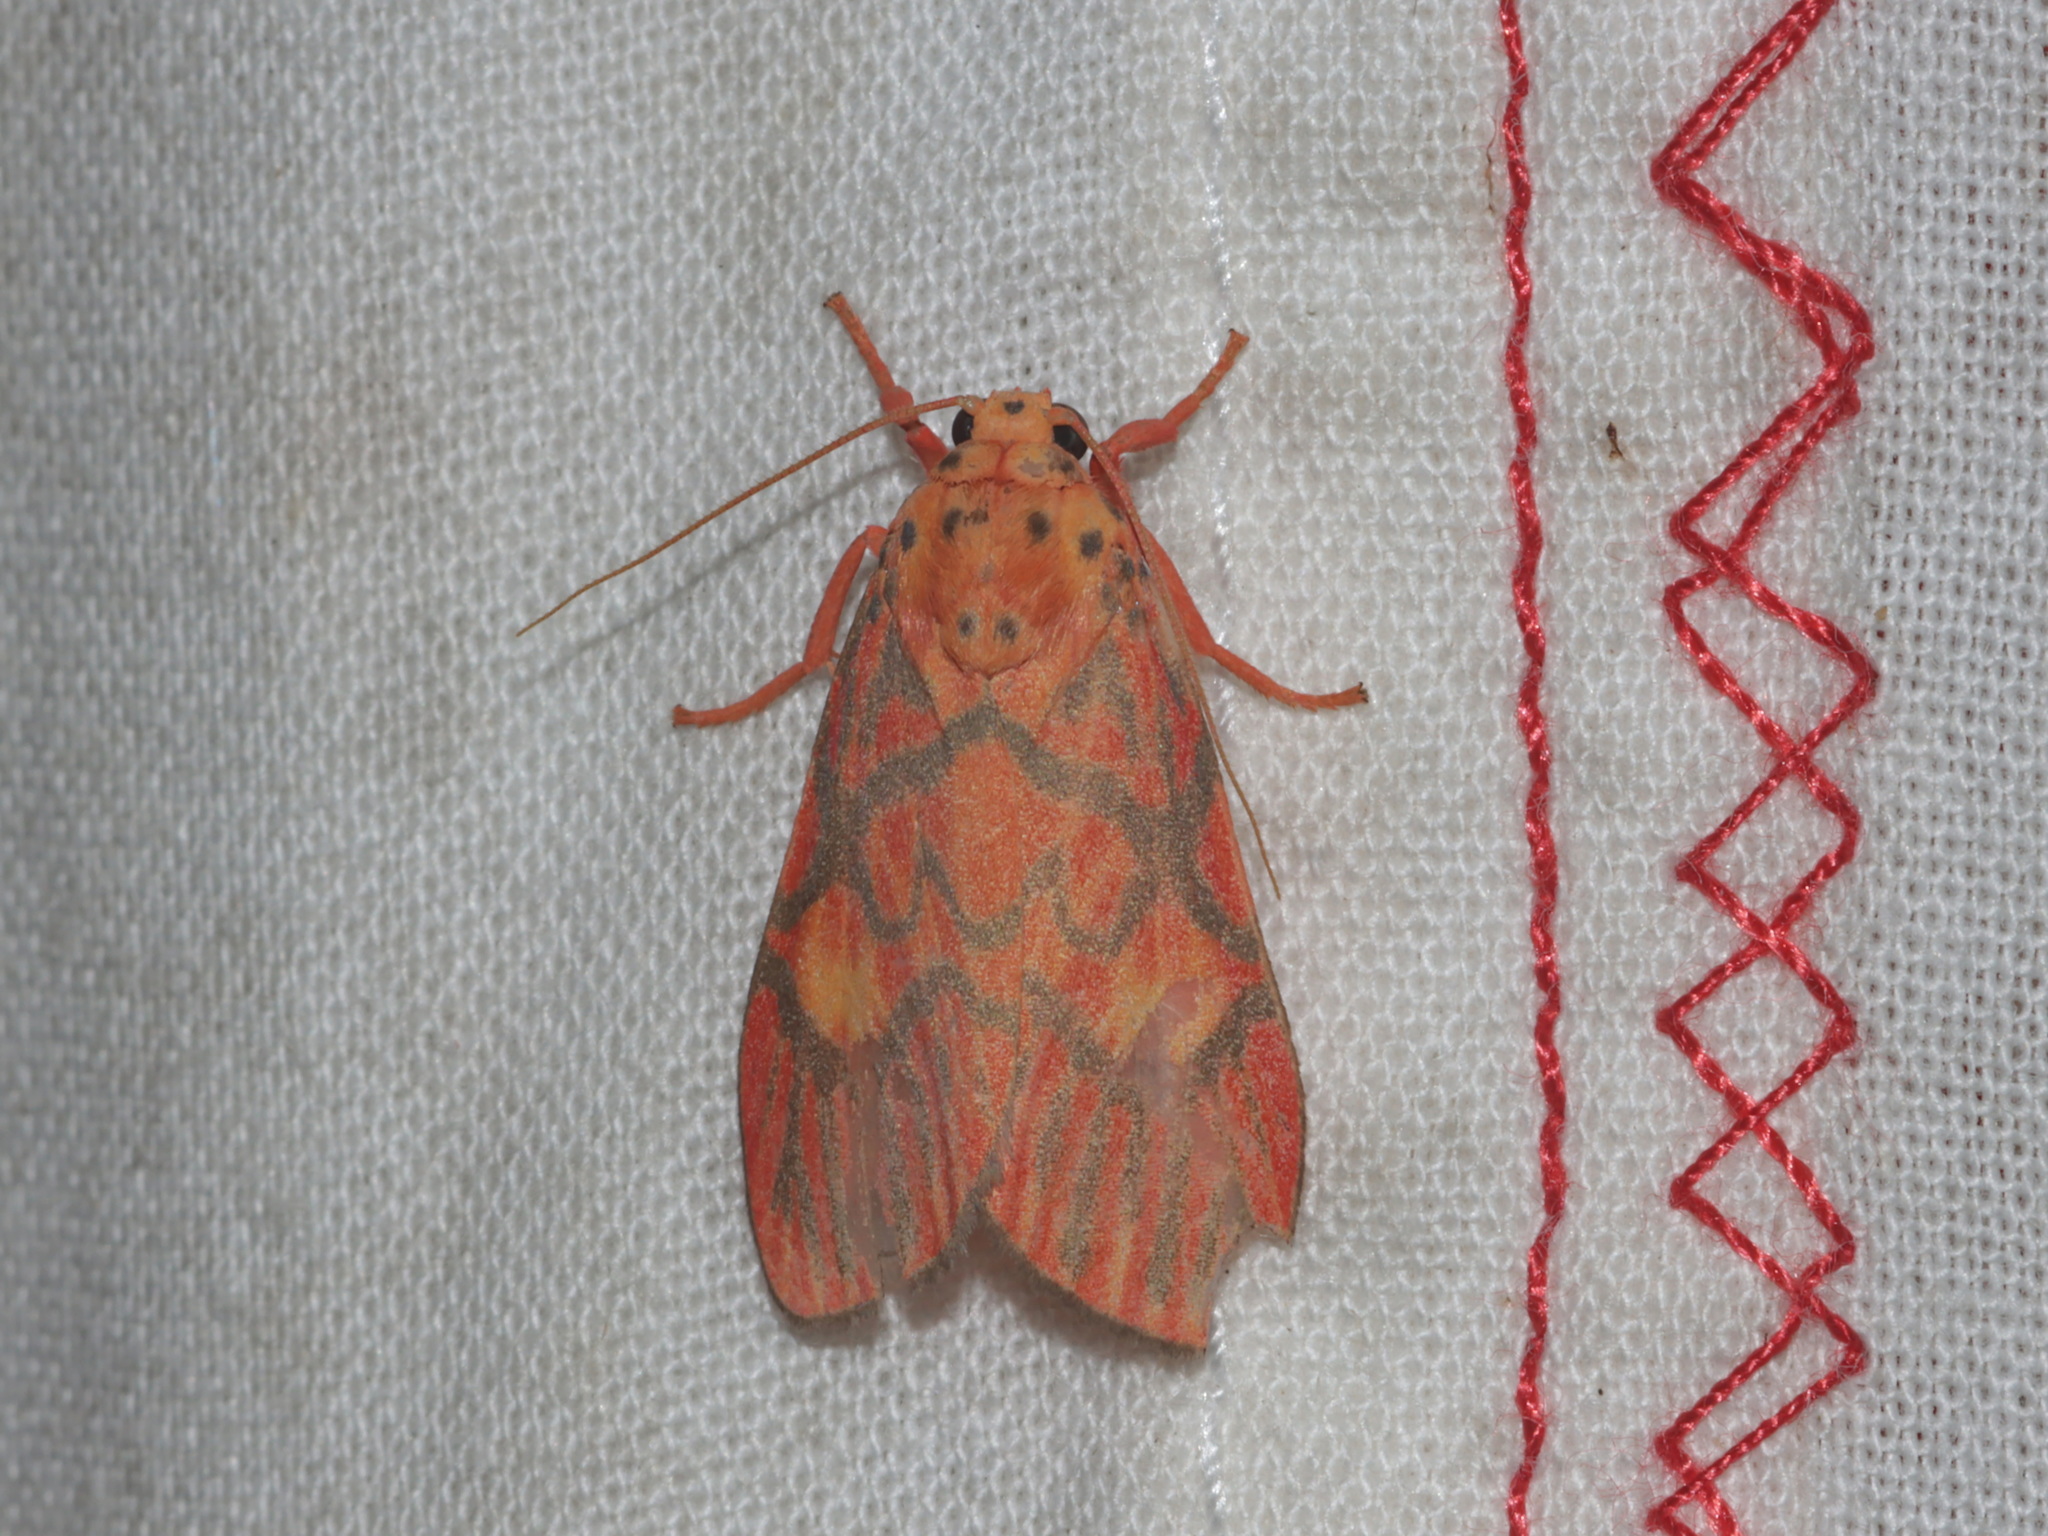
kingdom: Animalia
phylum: Arthropoda
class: Insecta
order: Lepidoptera
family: Erebidae
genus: Ammatho
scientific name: Ammatho cuneonotatus
